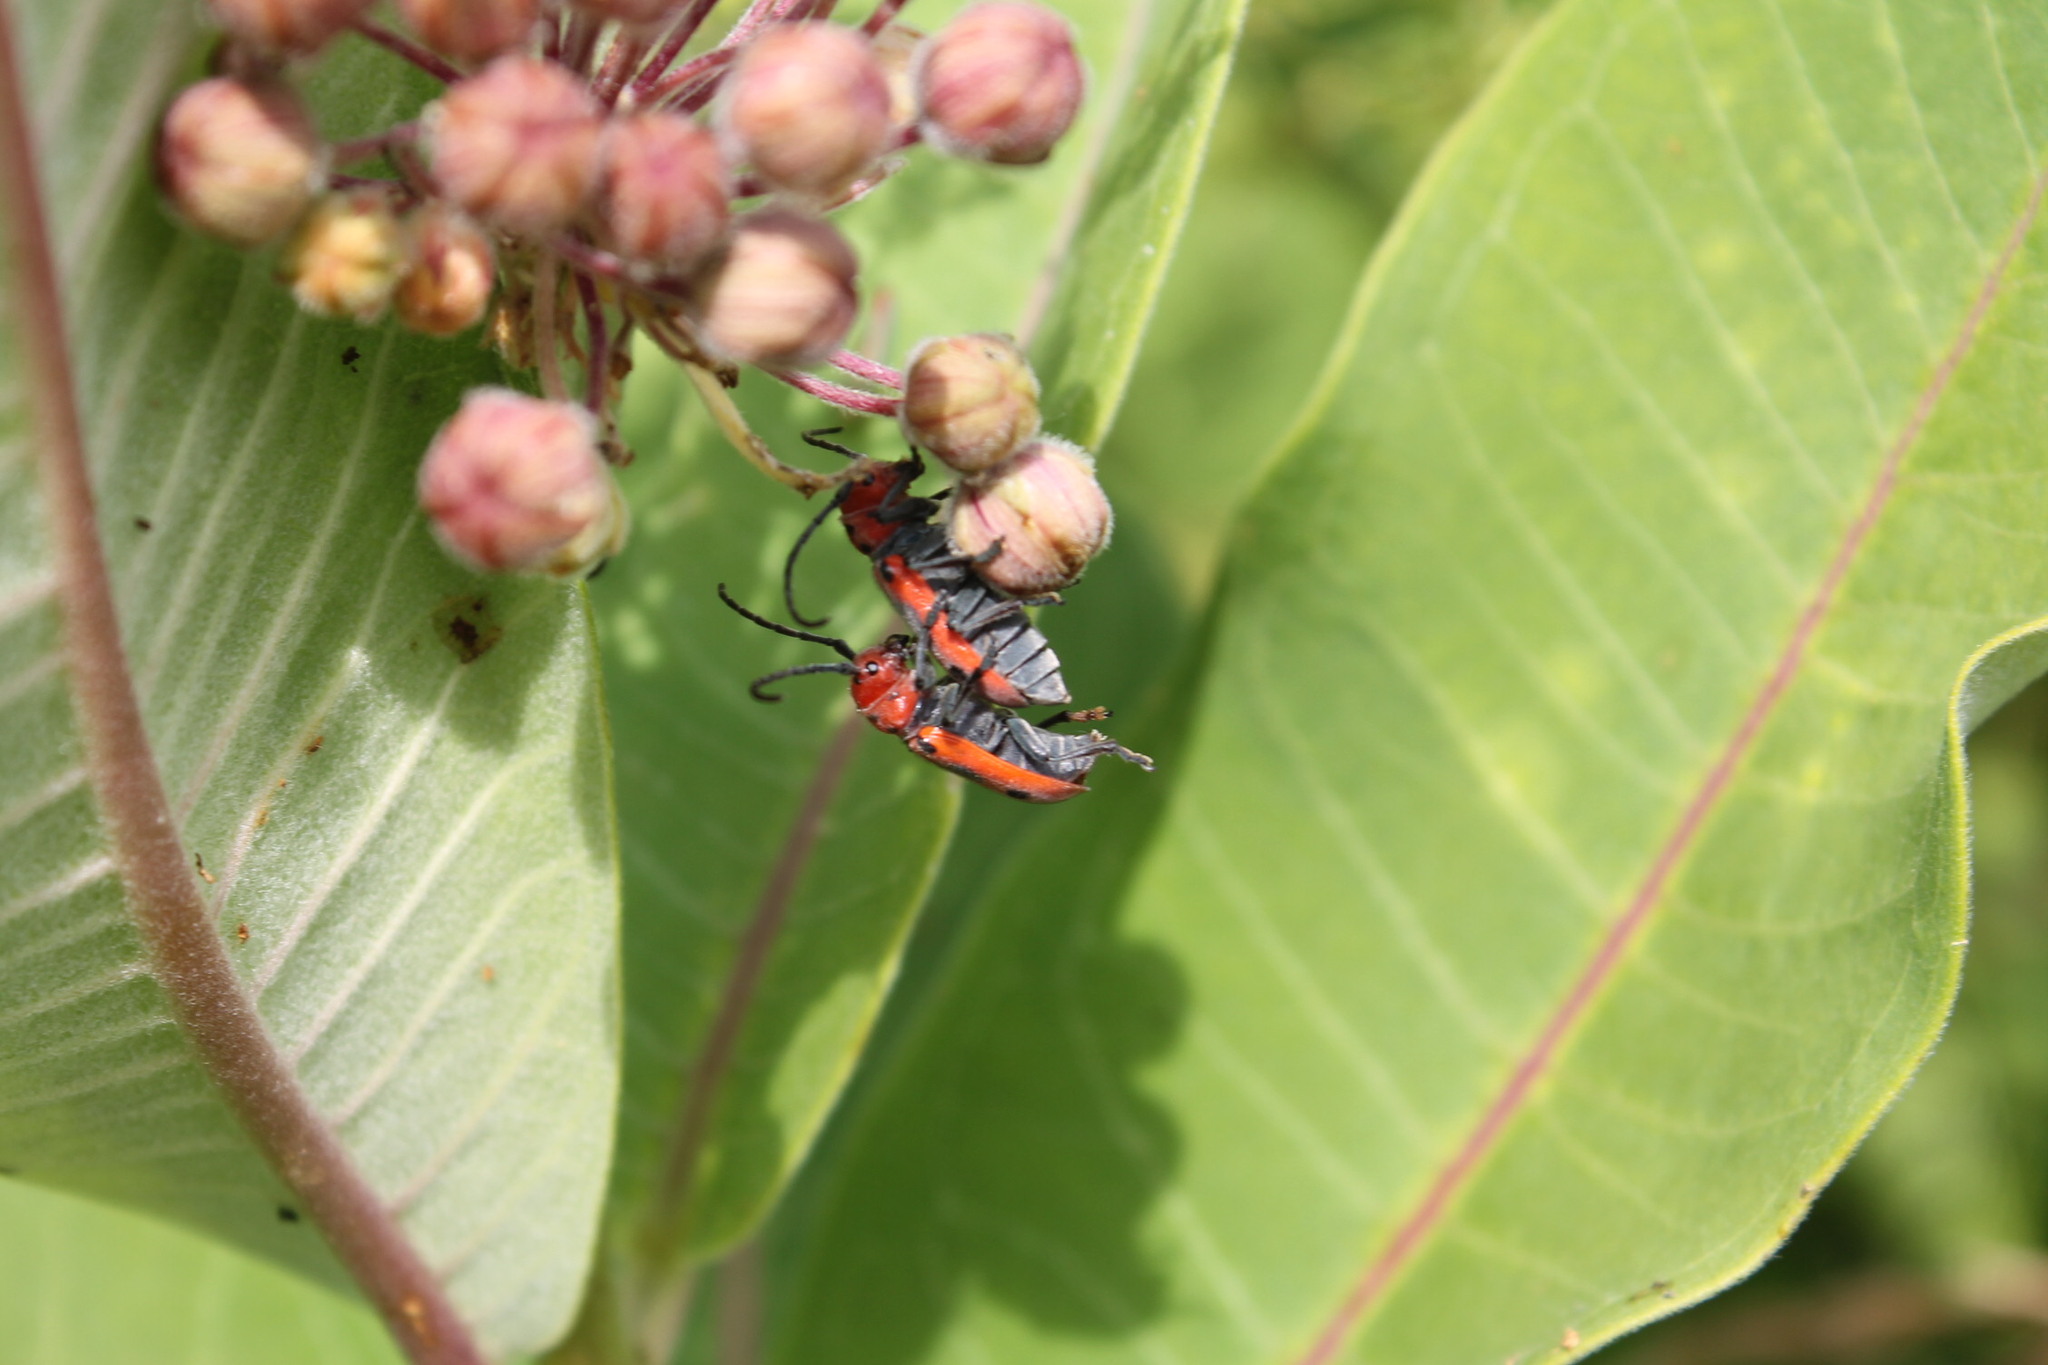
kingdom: Animalia
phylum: Arthropoda
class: Insecta
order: Coleoptera
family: Cerambycidae
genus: Tetraopes
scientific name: Tetraopes tetrophthalmus
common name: Red milkweed beetle
